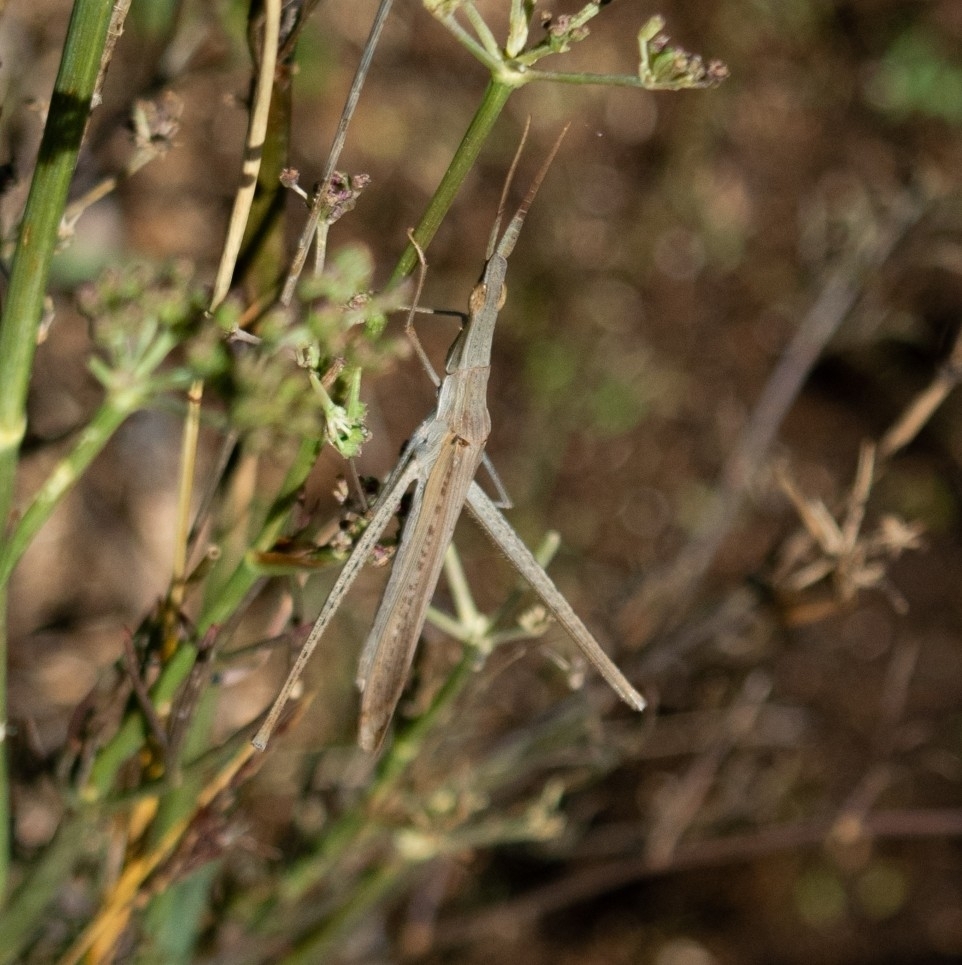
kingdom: Animalia
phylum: Arthropoda
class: Insecta
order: Orthoptera
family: Acrididae
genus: Acrida
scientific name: Acrida ungarica
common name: Common cone-headed grasshopper
